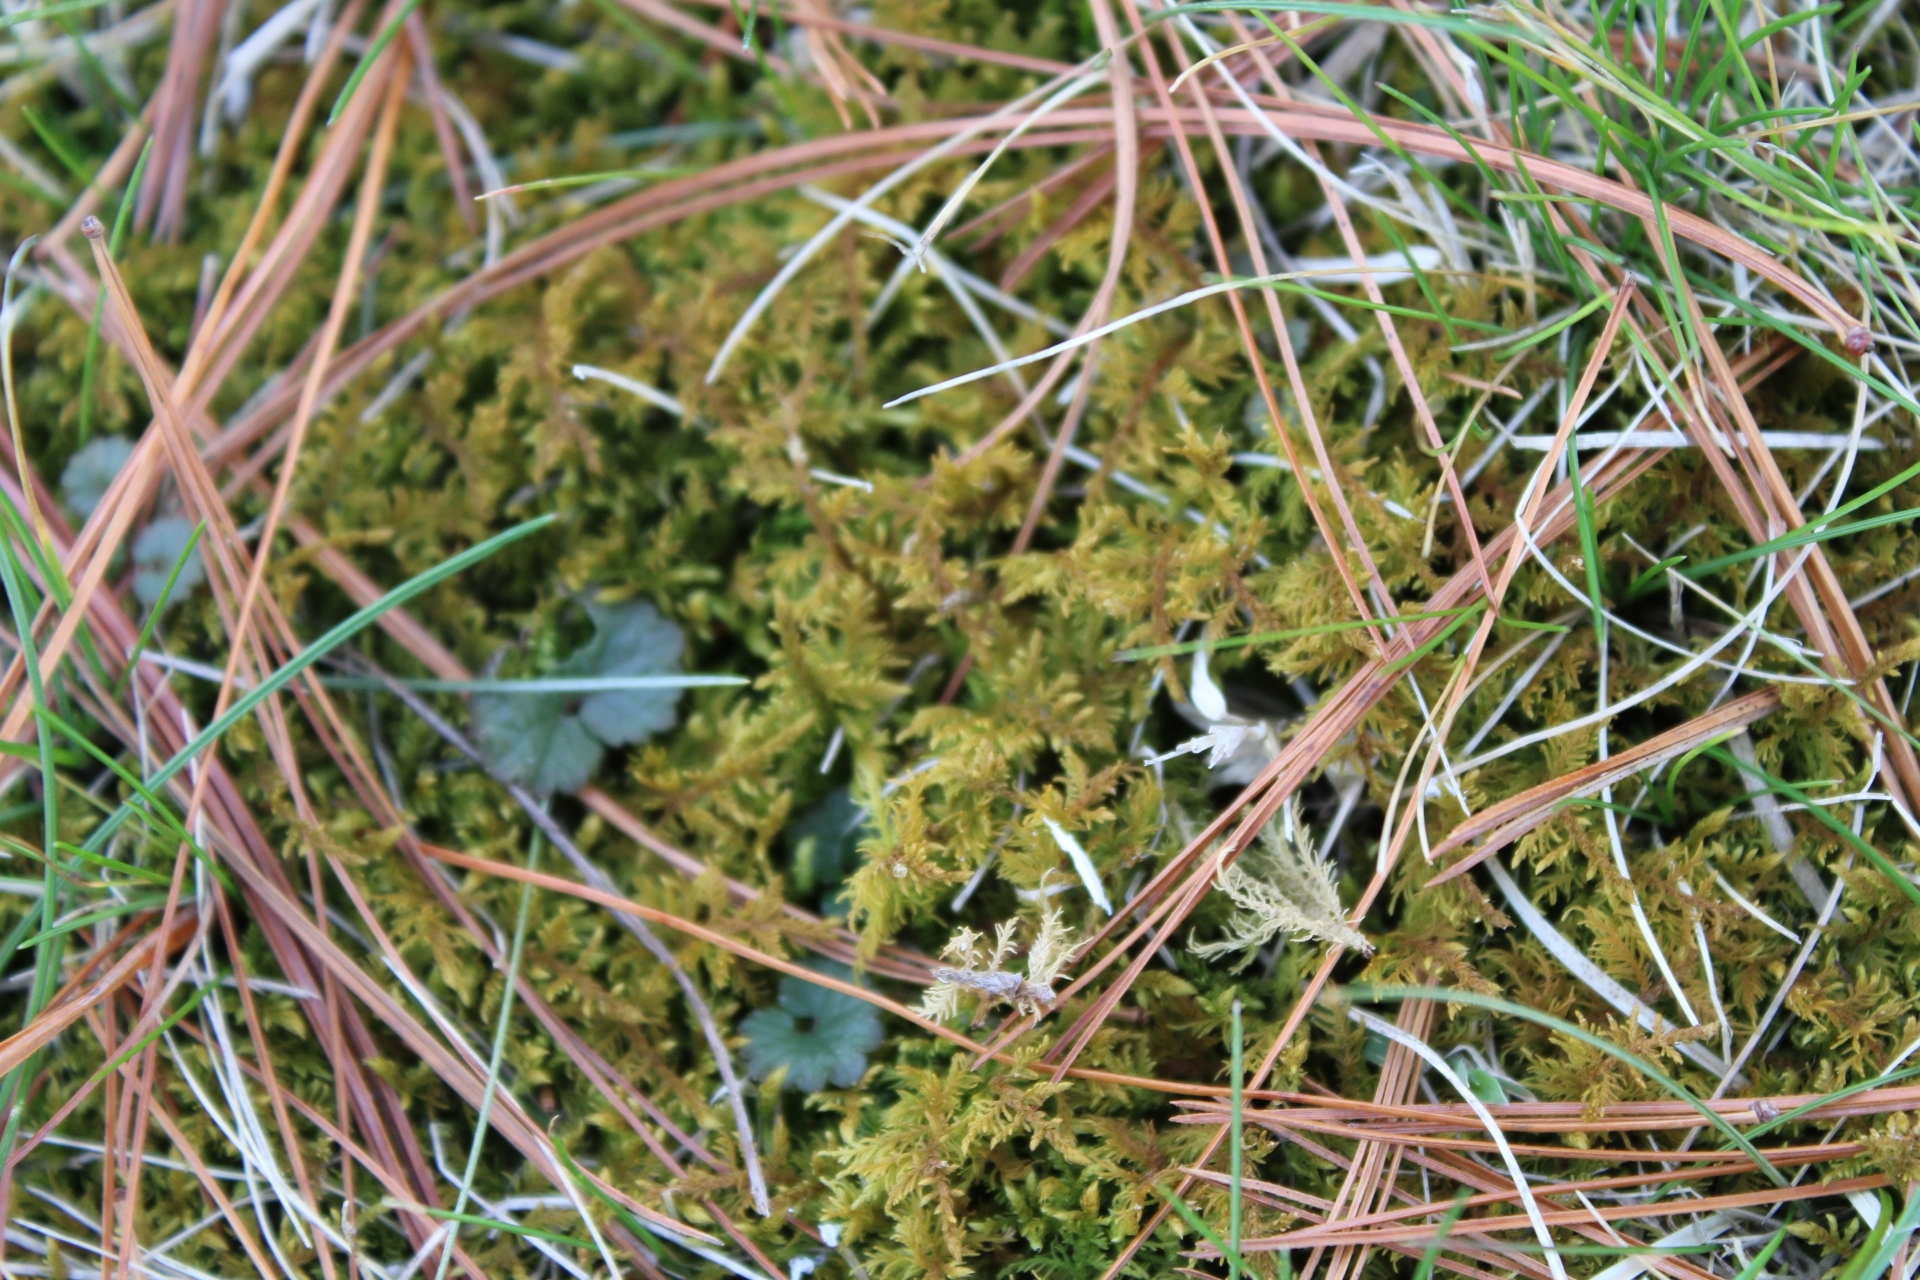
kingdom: Plantae
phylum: Bryophyta
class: Bryopsida
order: Hypnales
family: Thuidiaceae
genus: Thuidium
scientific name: Thuidium delicatulum
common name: Delicate fern moss
